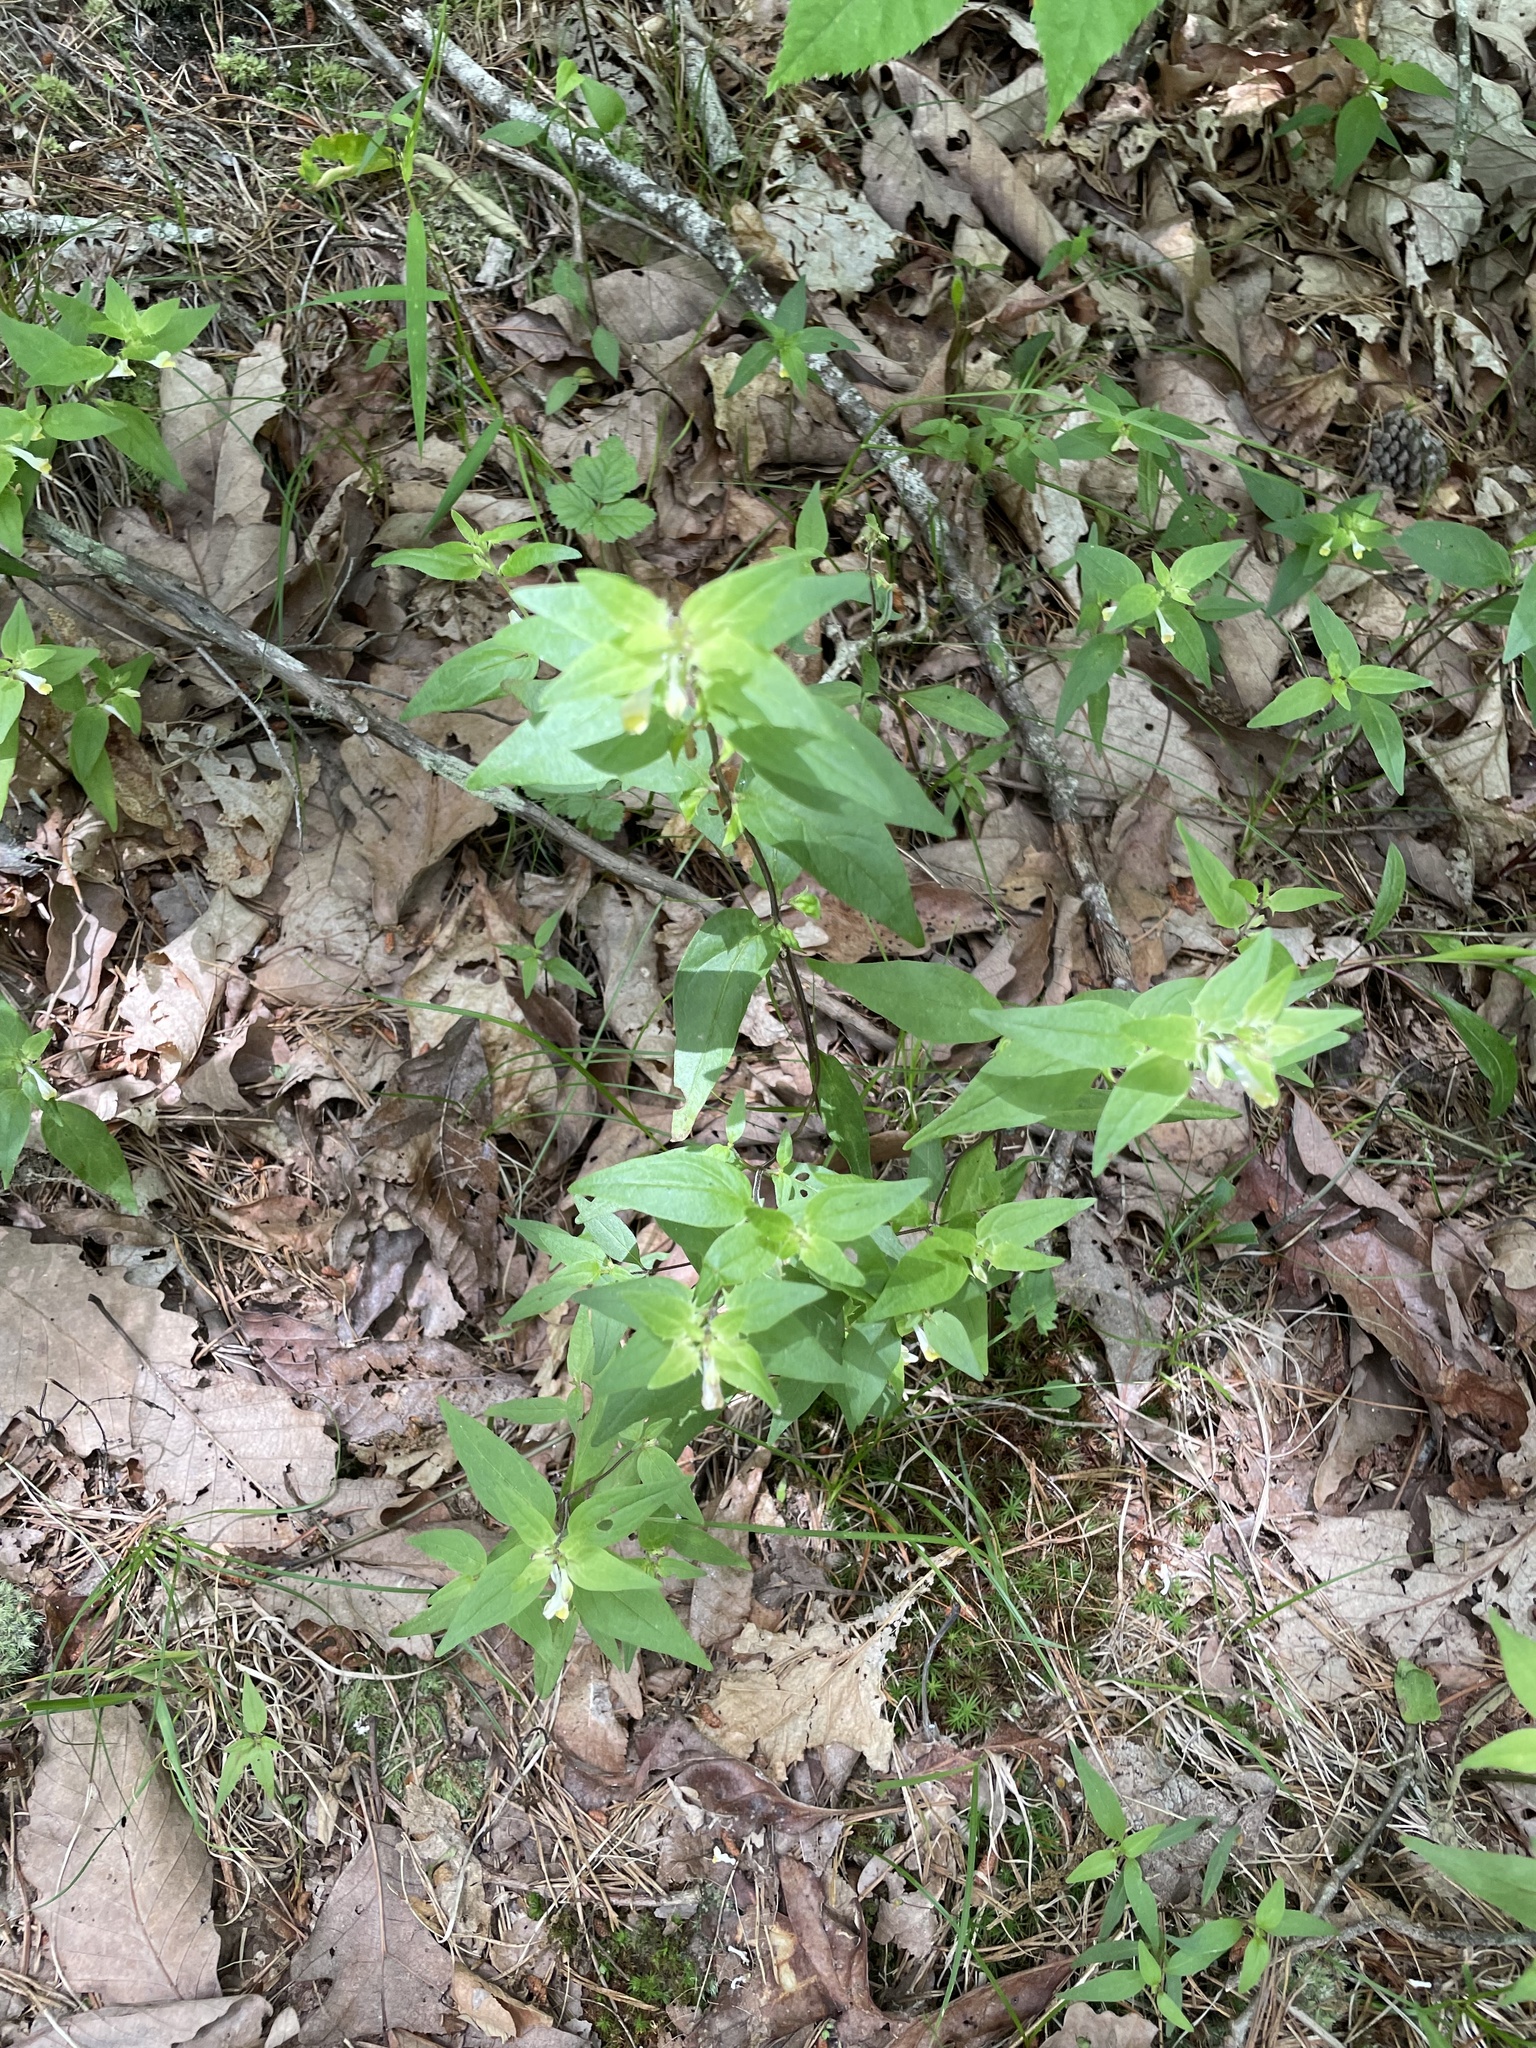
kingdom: Plantae
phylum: Tracheophyta
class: Magnoliopsida
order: Lamiales
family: Orobanchaceae
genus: Melampyrum
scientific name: Melampyrum lineare
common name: American cow-wheat
